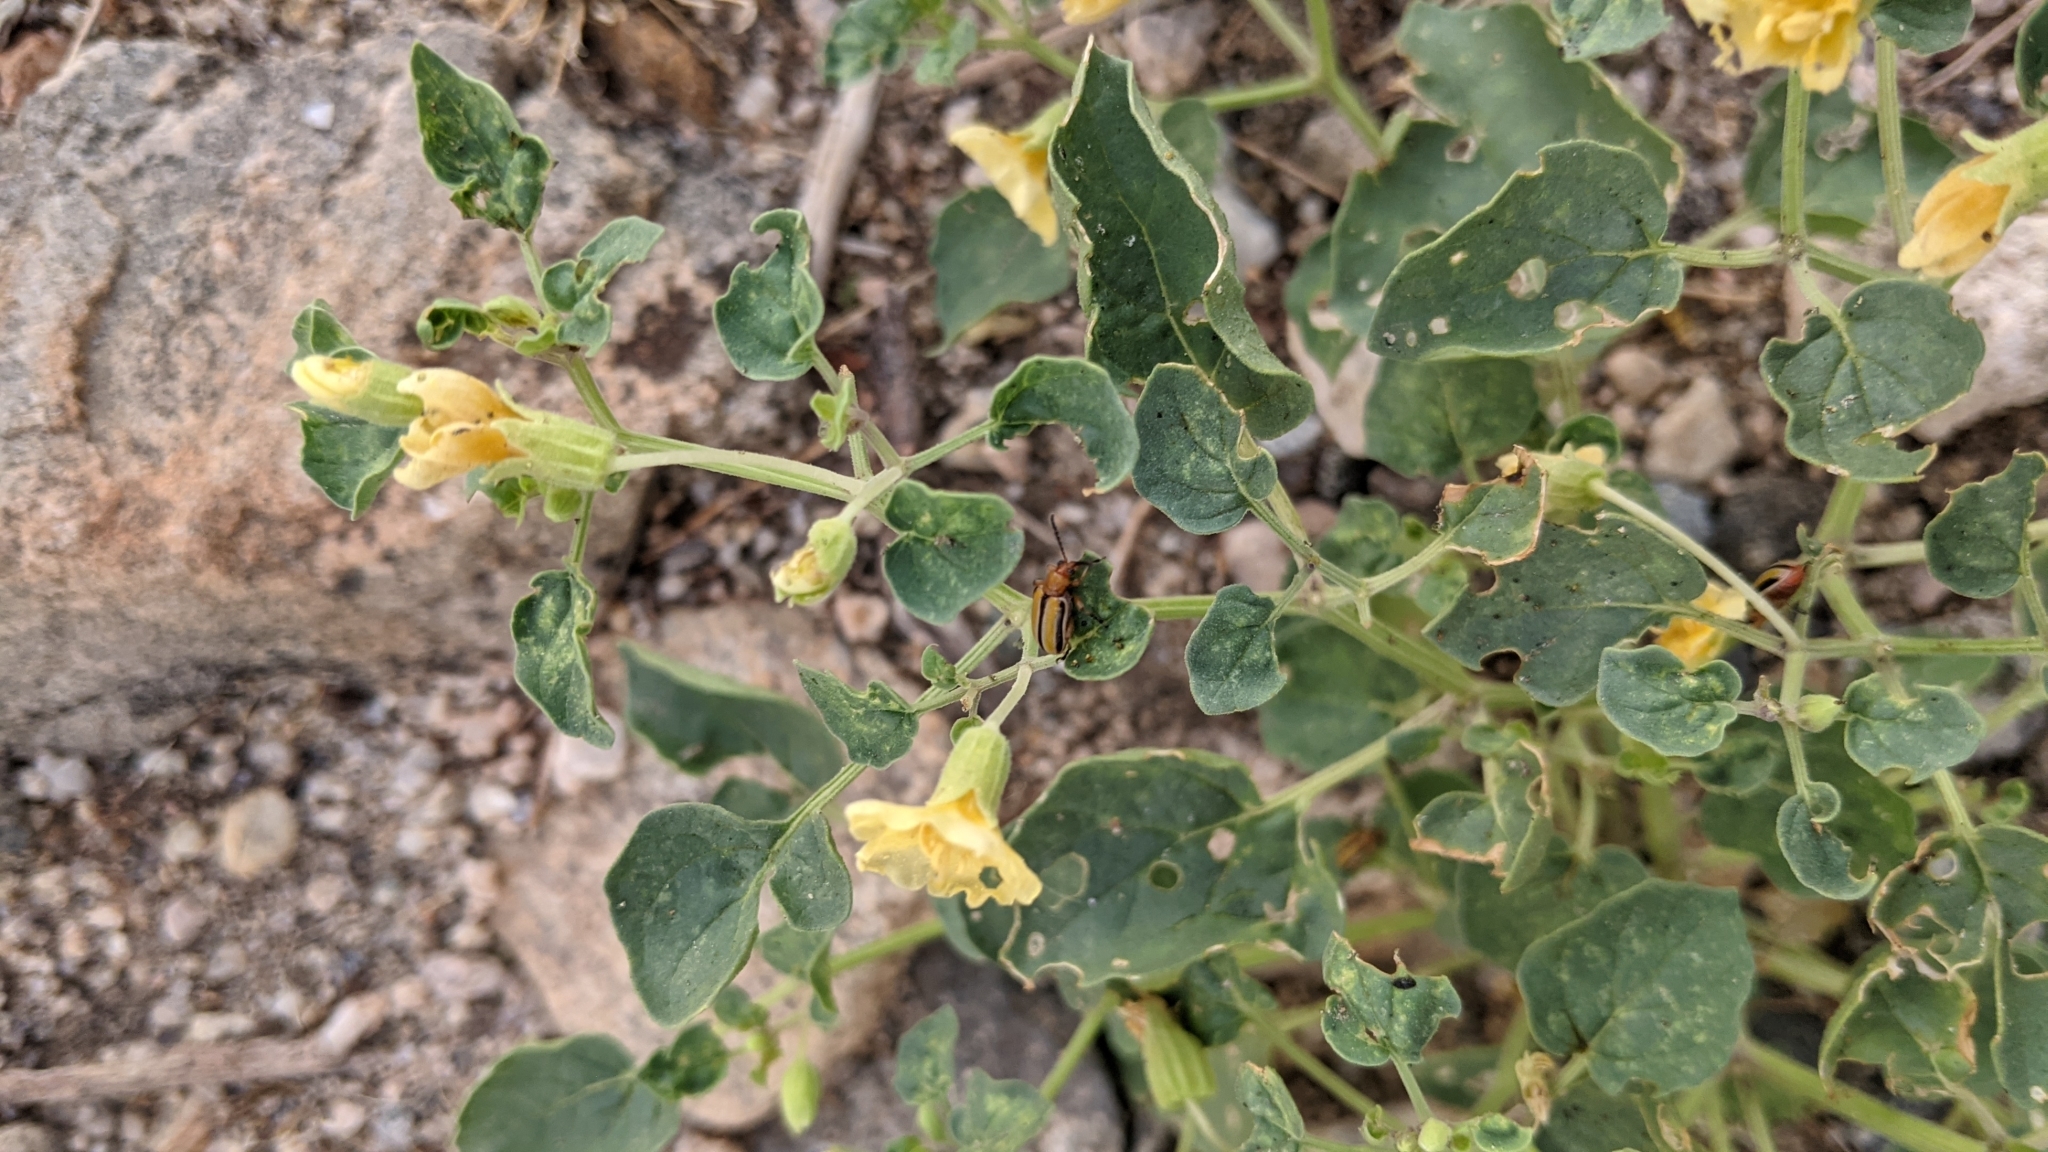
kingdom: Animalia
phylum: Arthropoda
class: Insecta
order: Coleoptera
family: Chrysomelidae
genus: Lema
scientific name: Lema daturaphila
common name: Leaf beetle
